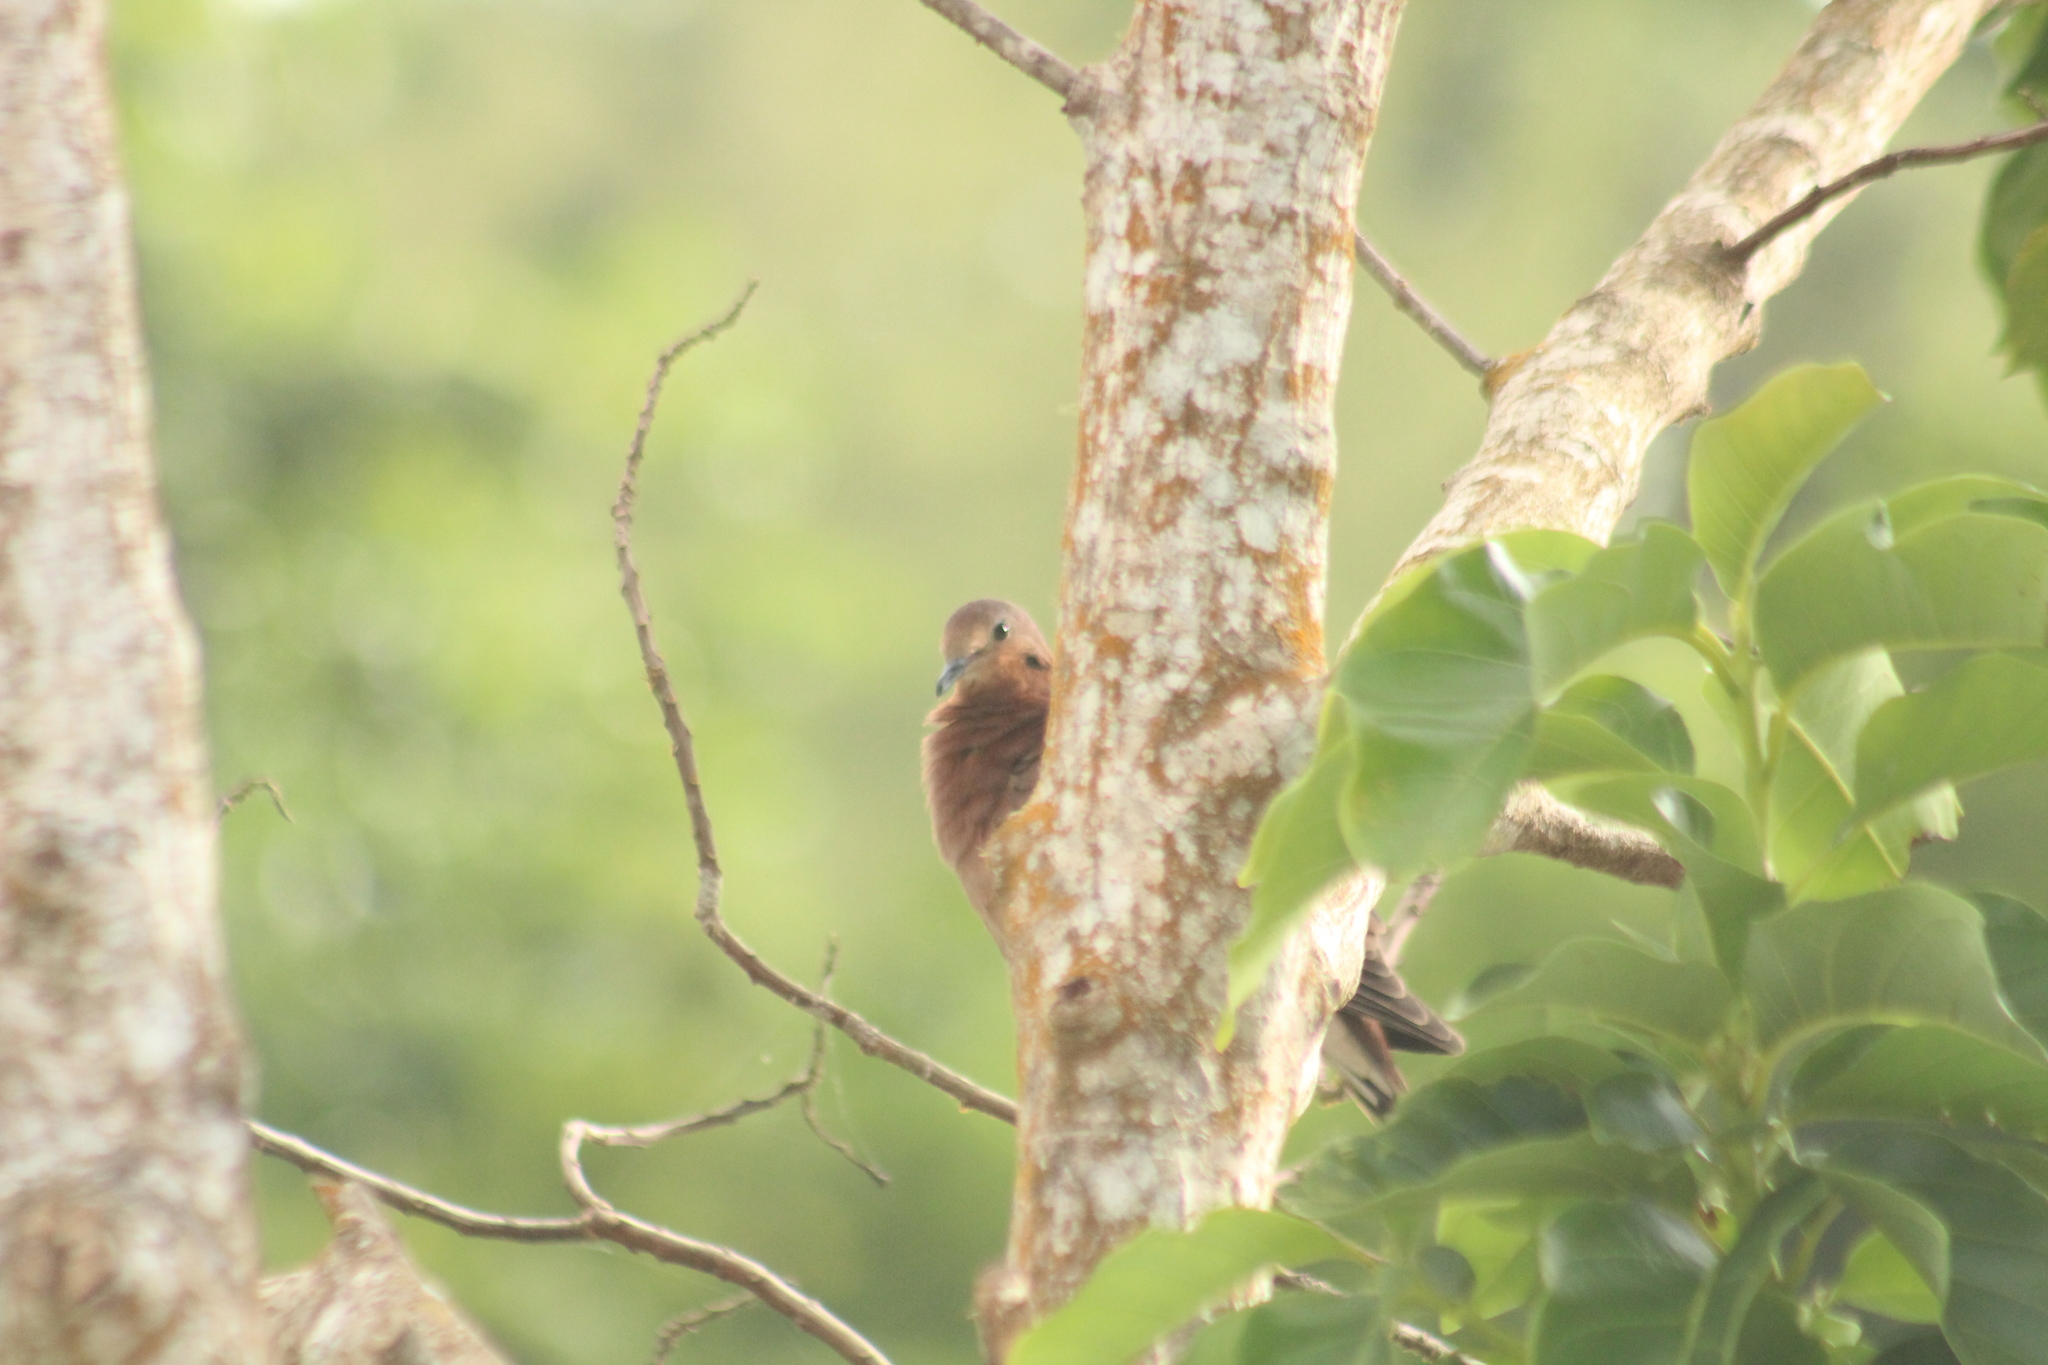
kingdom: Animalia
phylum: Chordata
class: Aves
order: Columbiformes
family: Columbidae
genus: Zenaida
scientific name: Zenaida aurita
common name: Zenaida dove
